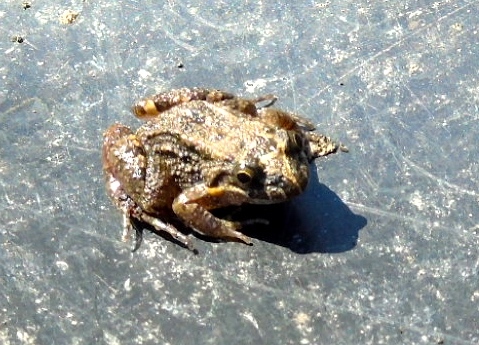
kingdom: Animalia
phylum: Chordata
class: Amphibia
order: Anura
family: Leptodactylidae
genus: Leptodactylus
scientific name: Leptodactylus melanonotus
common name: Fringe-toed foamfrog
